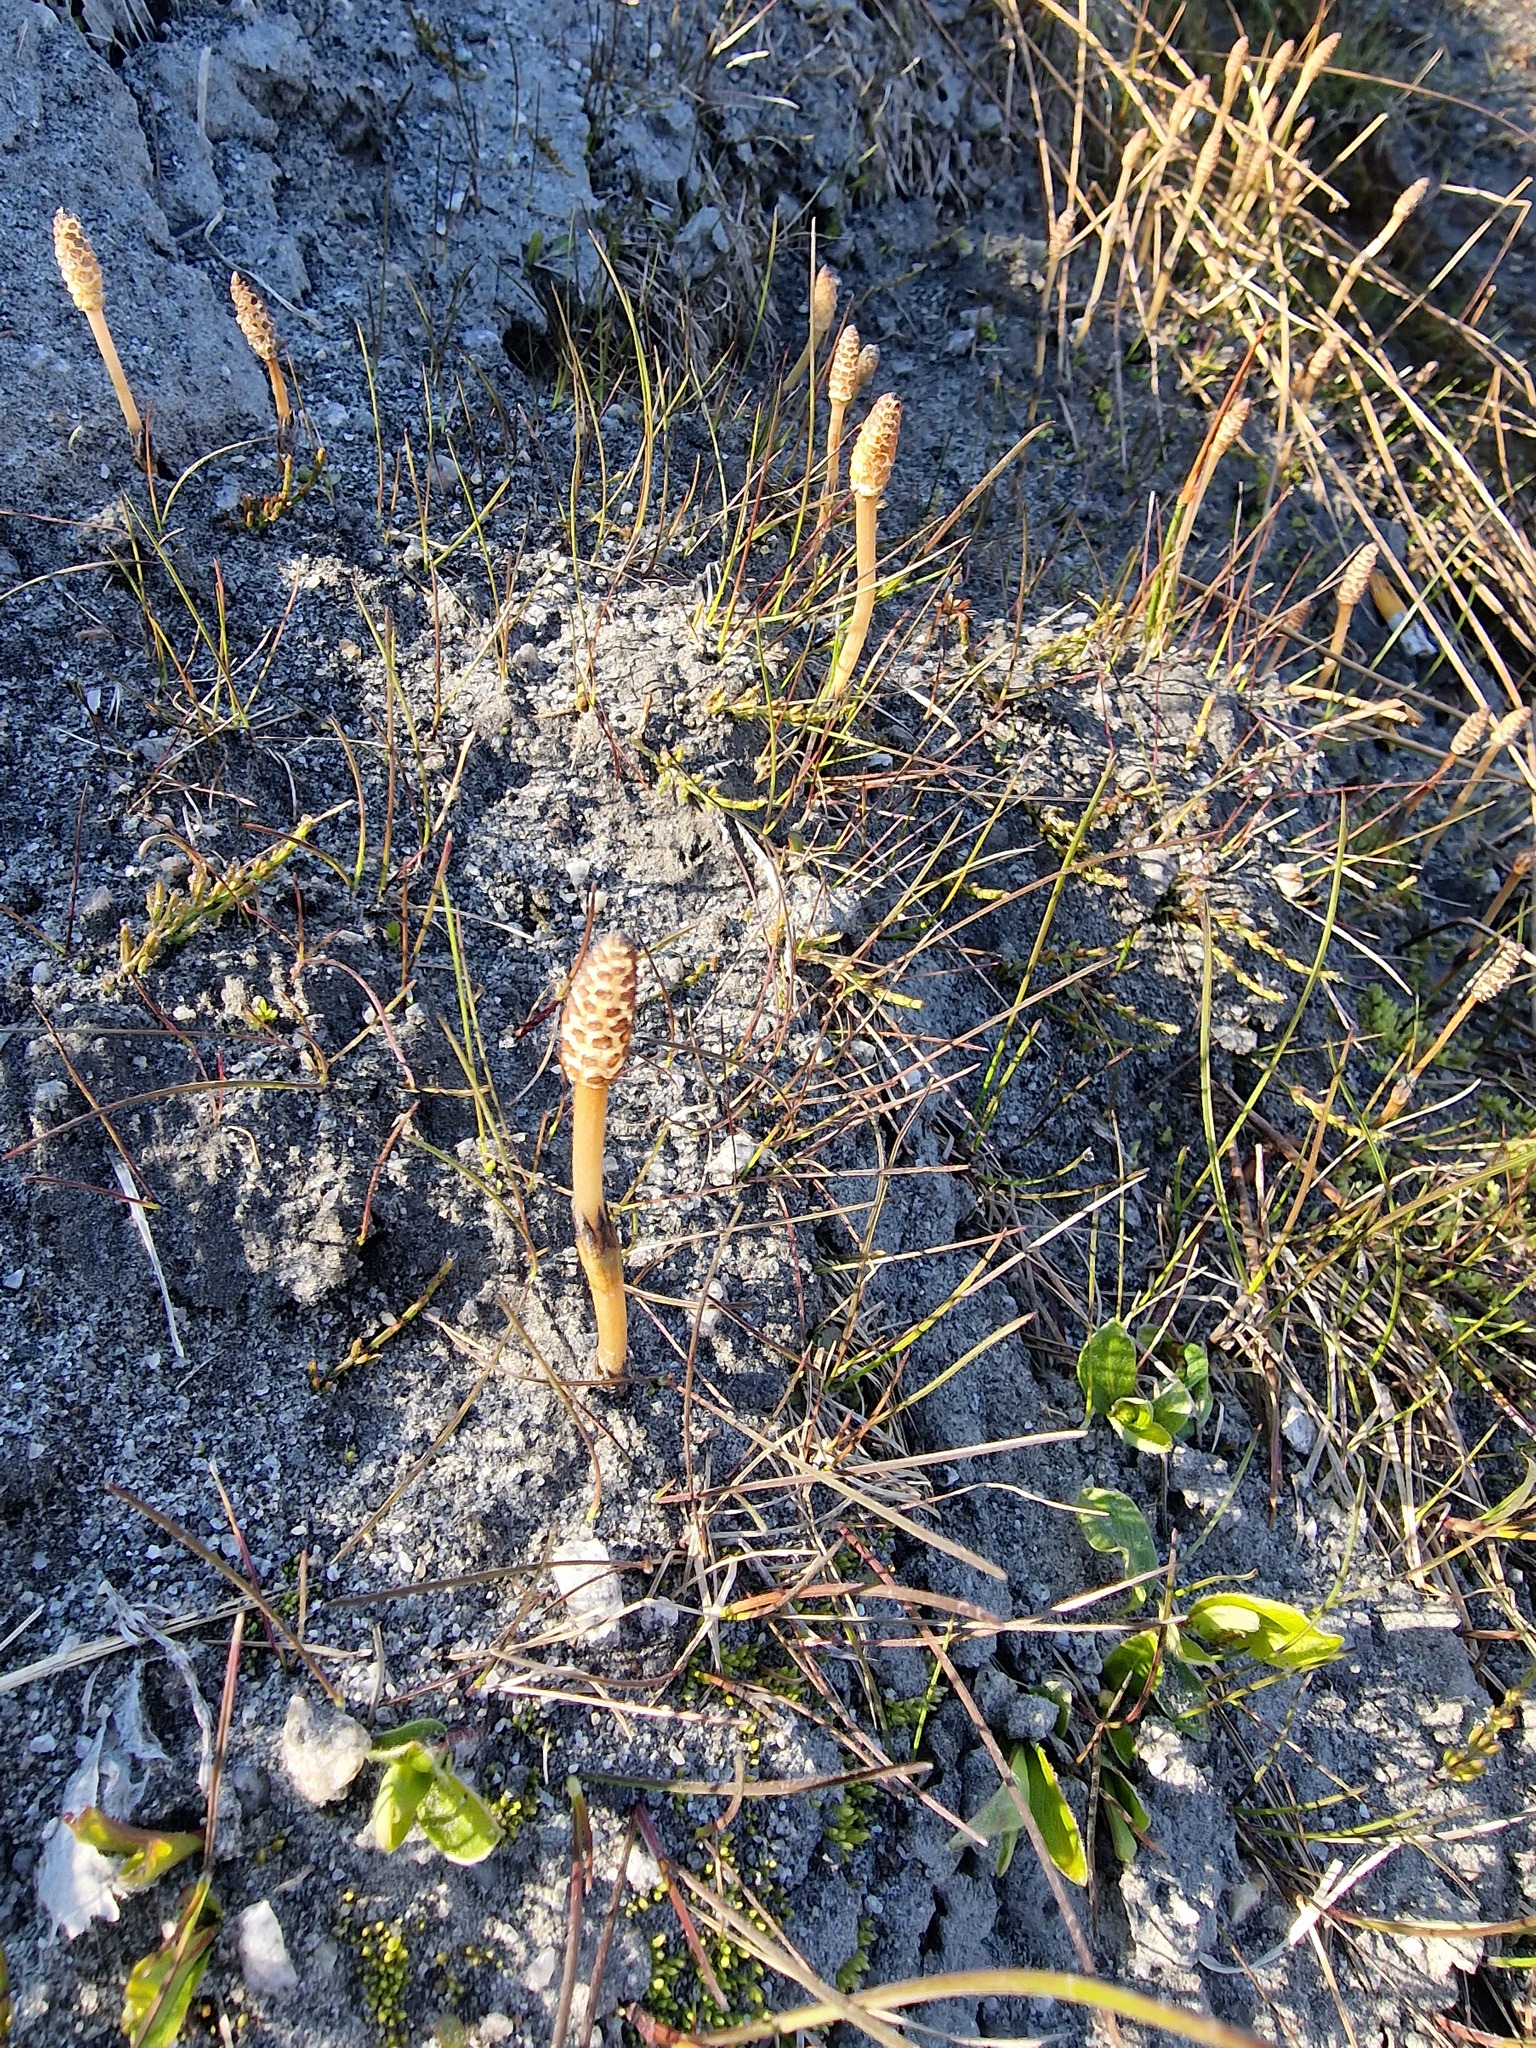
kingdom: Plantae
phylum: Tracheophyta
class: Polypodiopsida
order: Equisetales
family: Equisetaceae
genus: Equisetum
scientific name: Equisetum arvense
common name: Field horsetail
